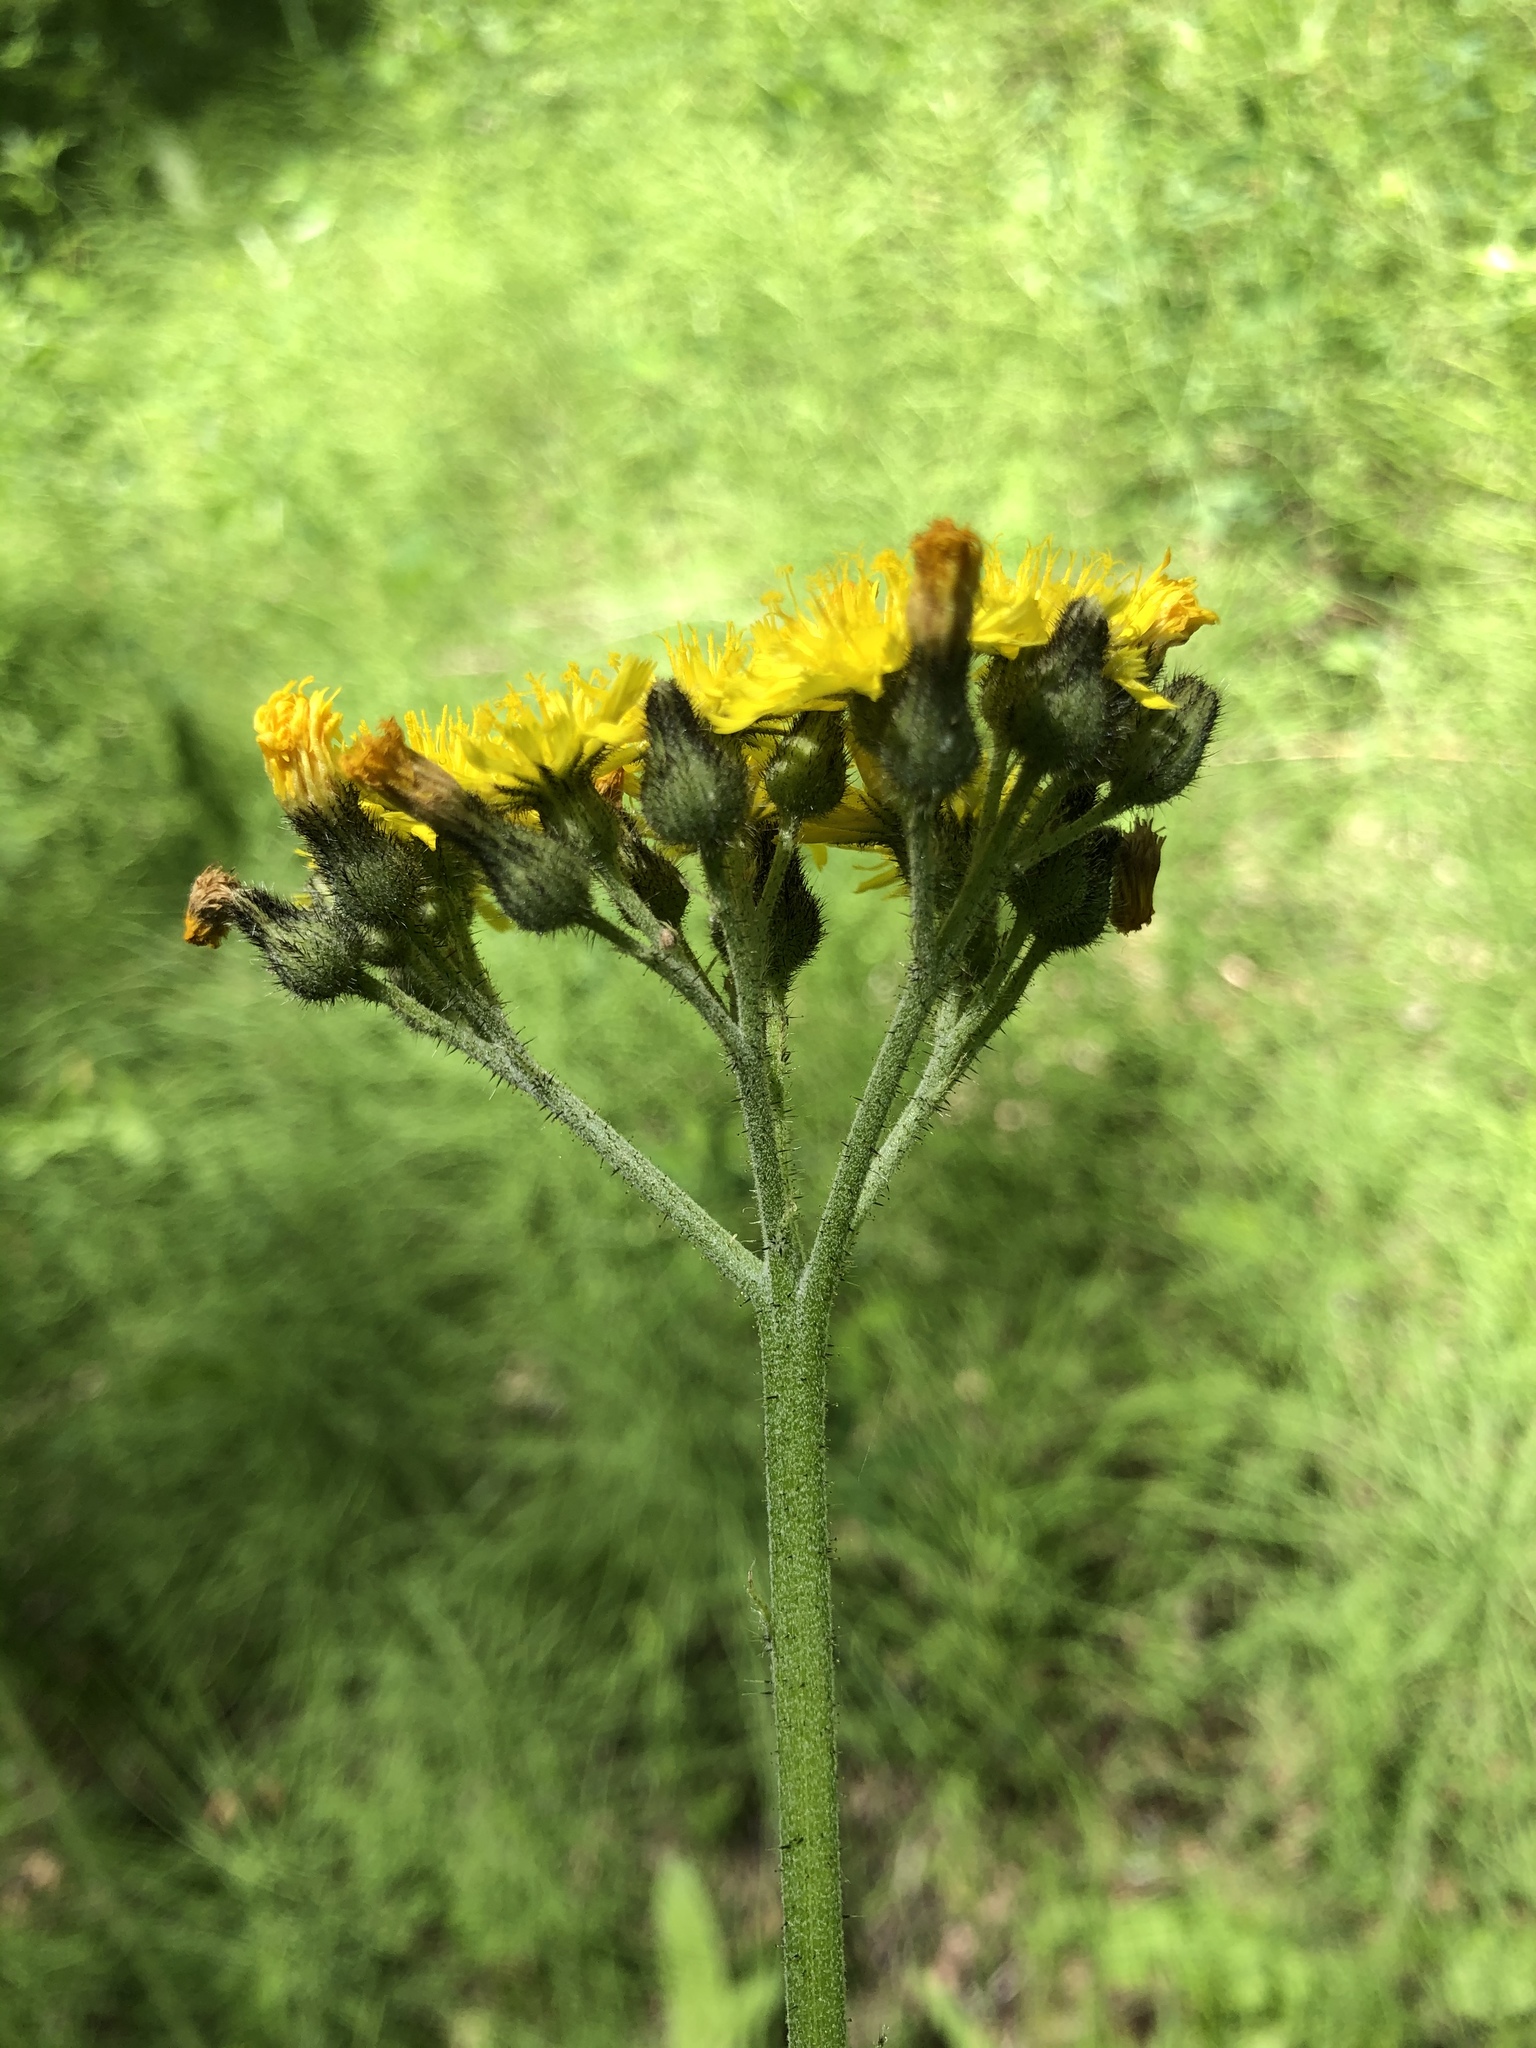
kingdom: Plantae
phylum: Tracheophyta
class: Magnoliopsida
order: Asterales
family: Asteraceae
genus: Pilosella
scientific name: Pilosella cymosa
